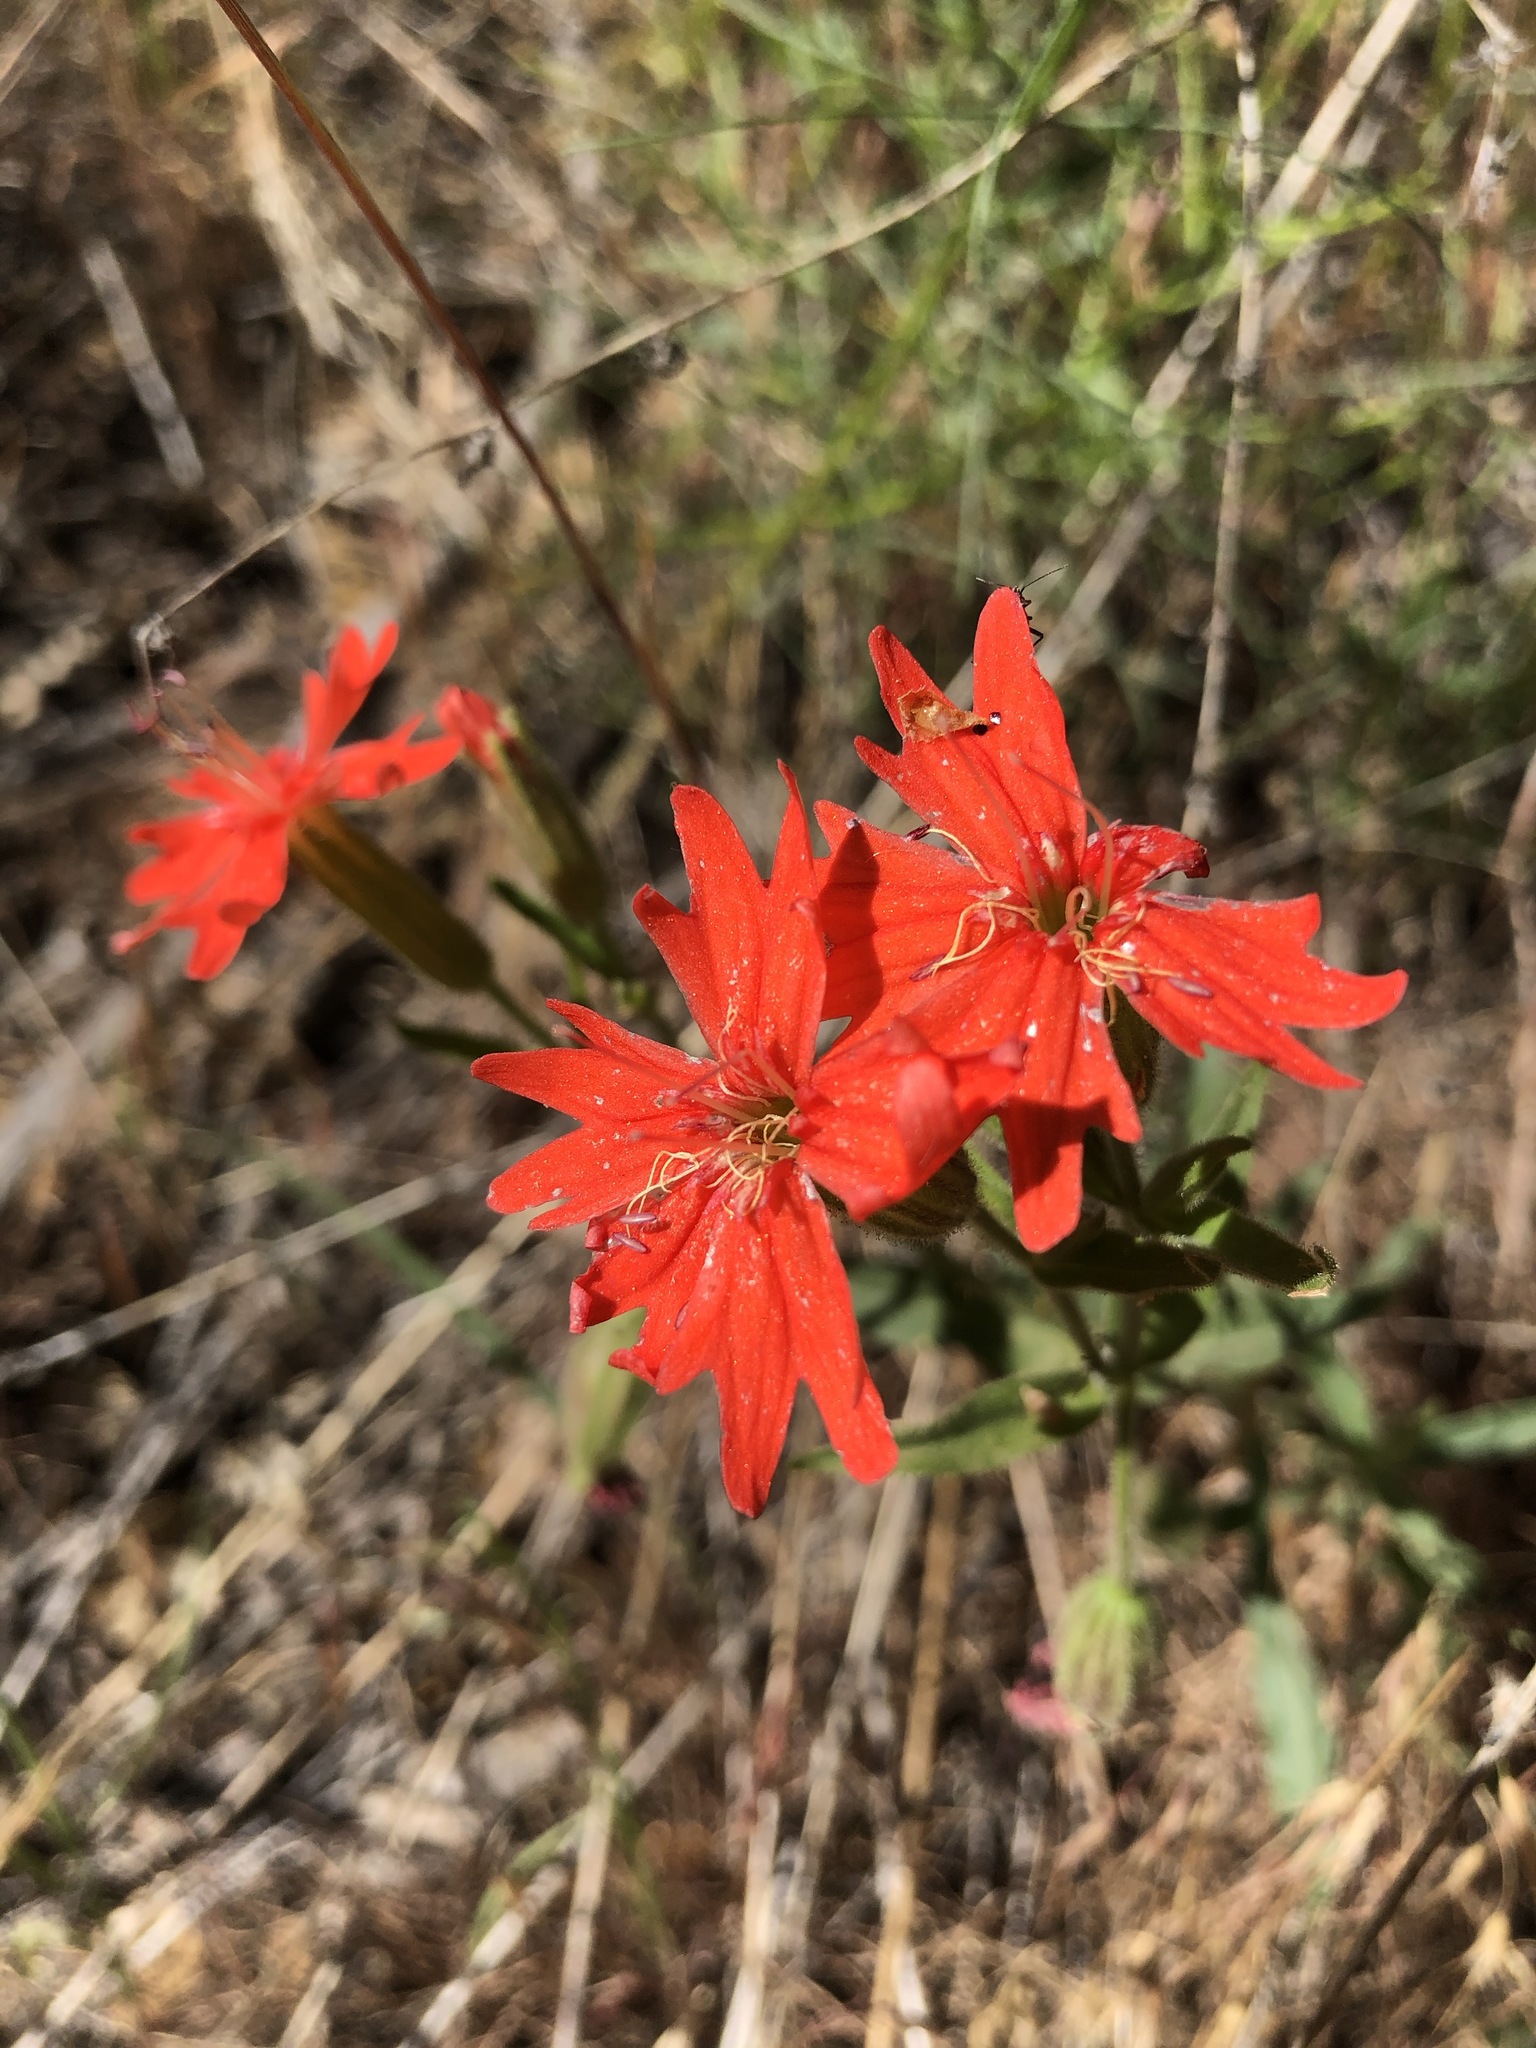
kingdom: Plantae
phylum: Tracheophyta
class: Magnoliopsida
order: Caryophyllales
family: Caryophyllaceae
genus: Silene
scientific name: Silene laciniata
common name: Indian-pink
